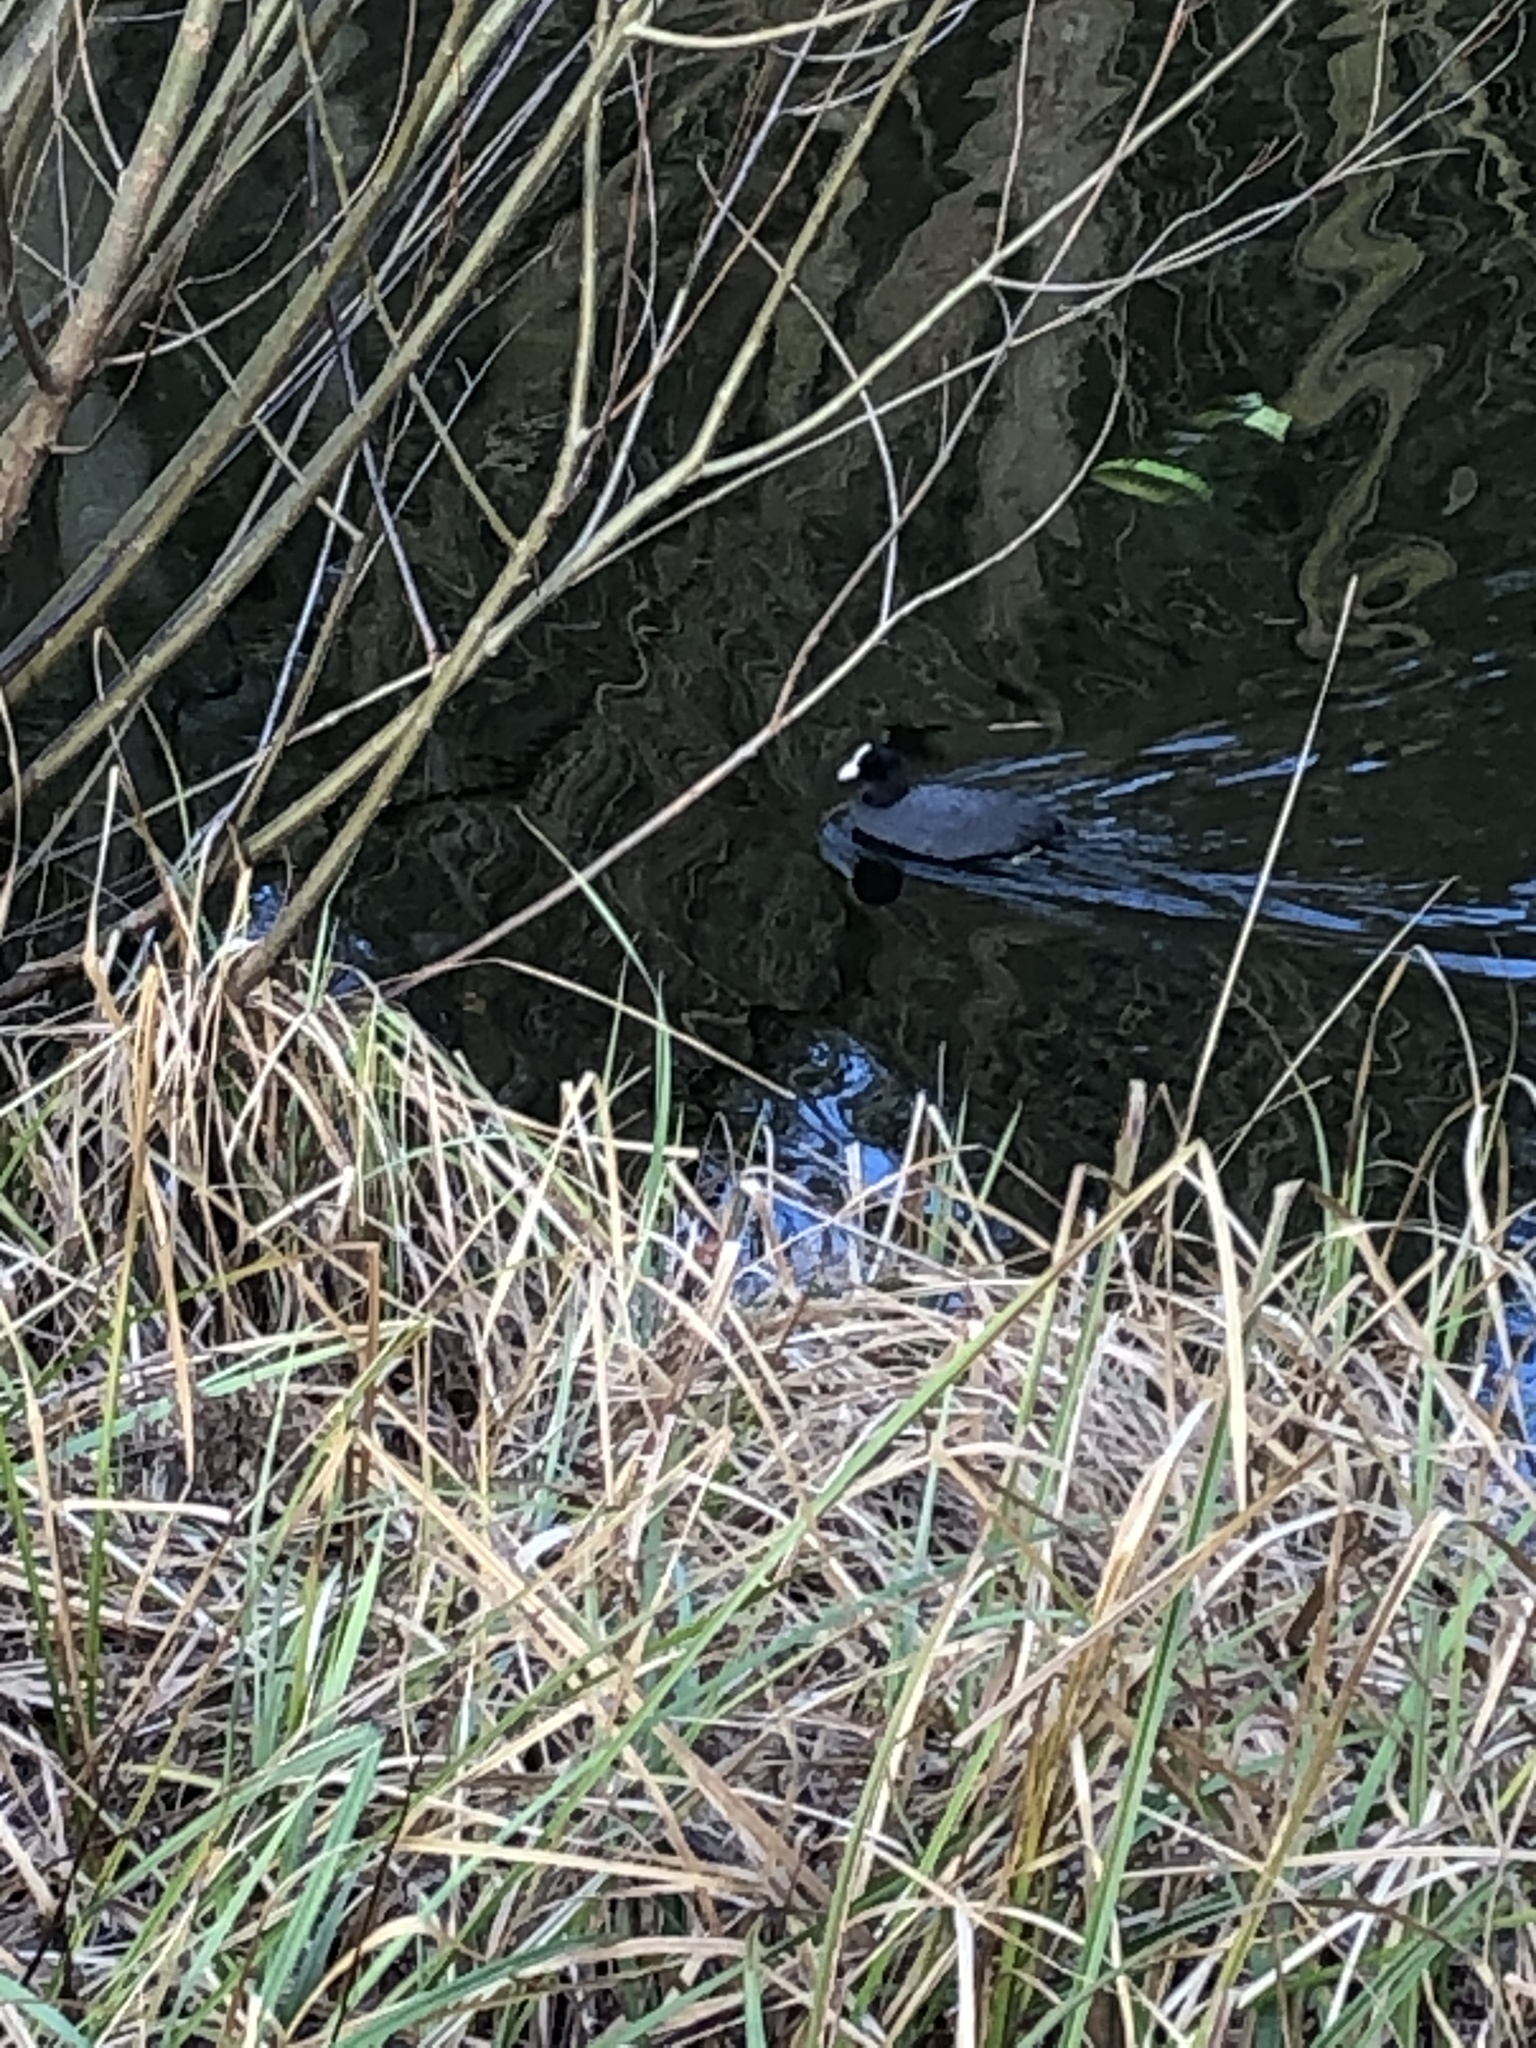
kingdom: Animalia
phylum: Chordata
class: Aves
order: Gruiformes
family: Rallidae
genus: Fulica
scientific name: Fulica atra
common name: Eurasian coot
